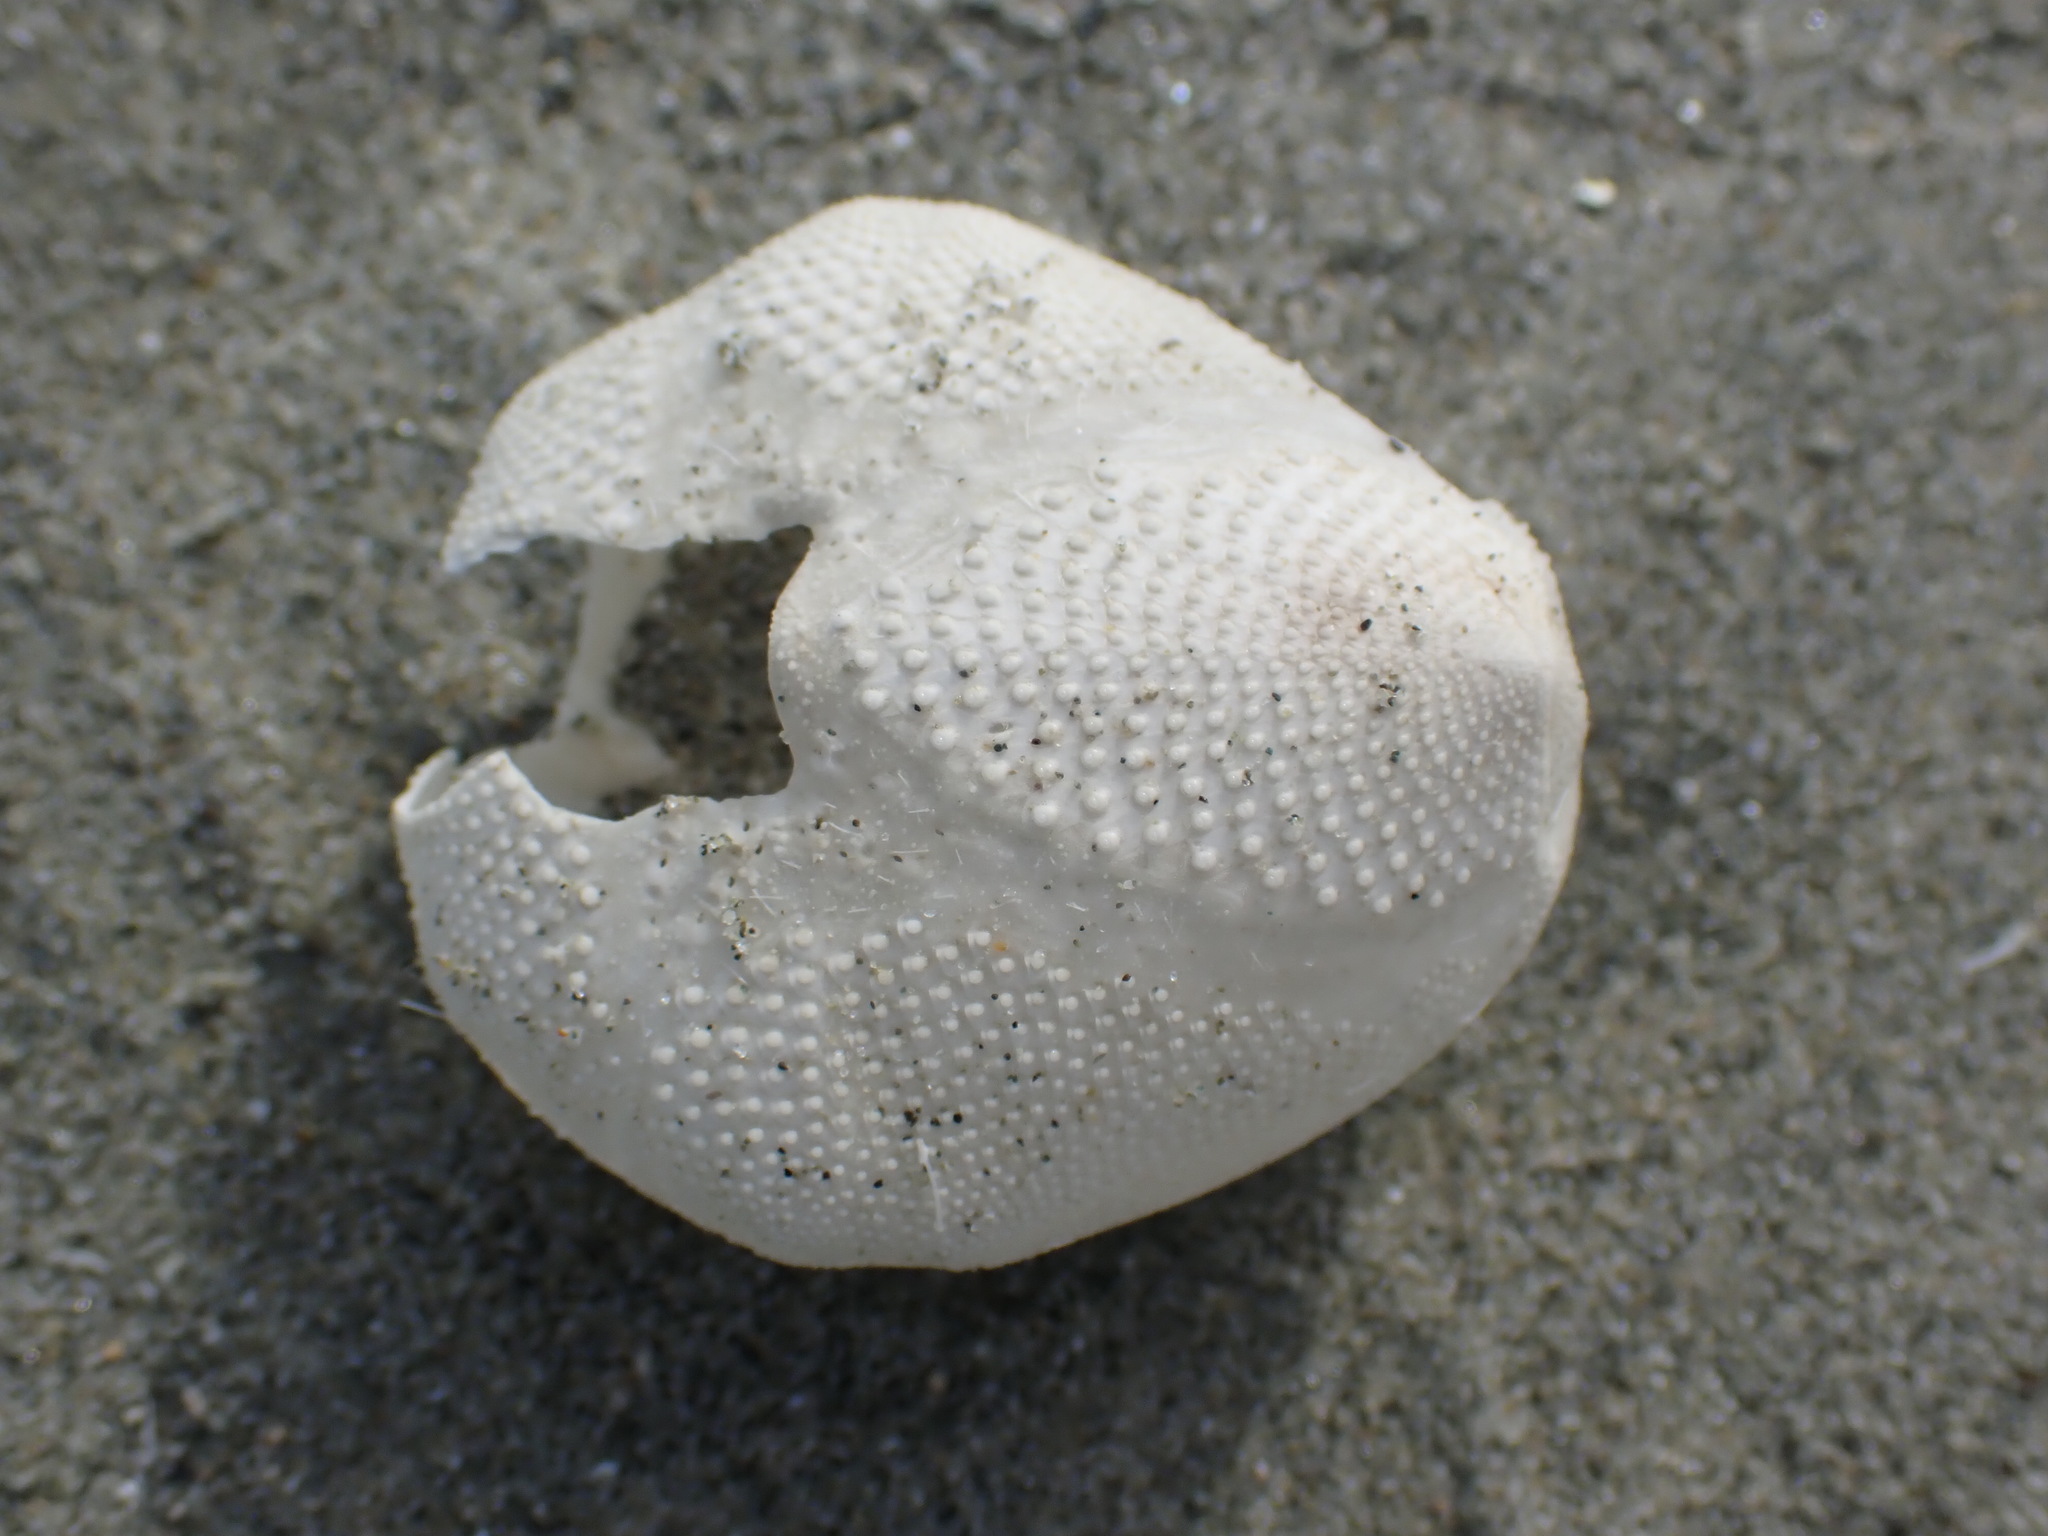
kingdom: Animalia
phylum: Echinodermata
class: Echinoidea
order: Spatangoida
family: Loveniidae
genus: Echinocardium
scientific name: Echinocardium cordatum
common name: Heart-urchin
